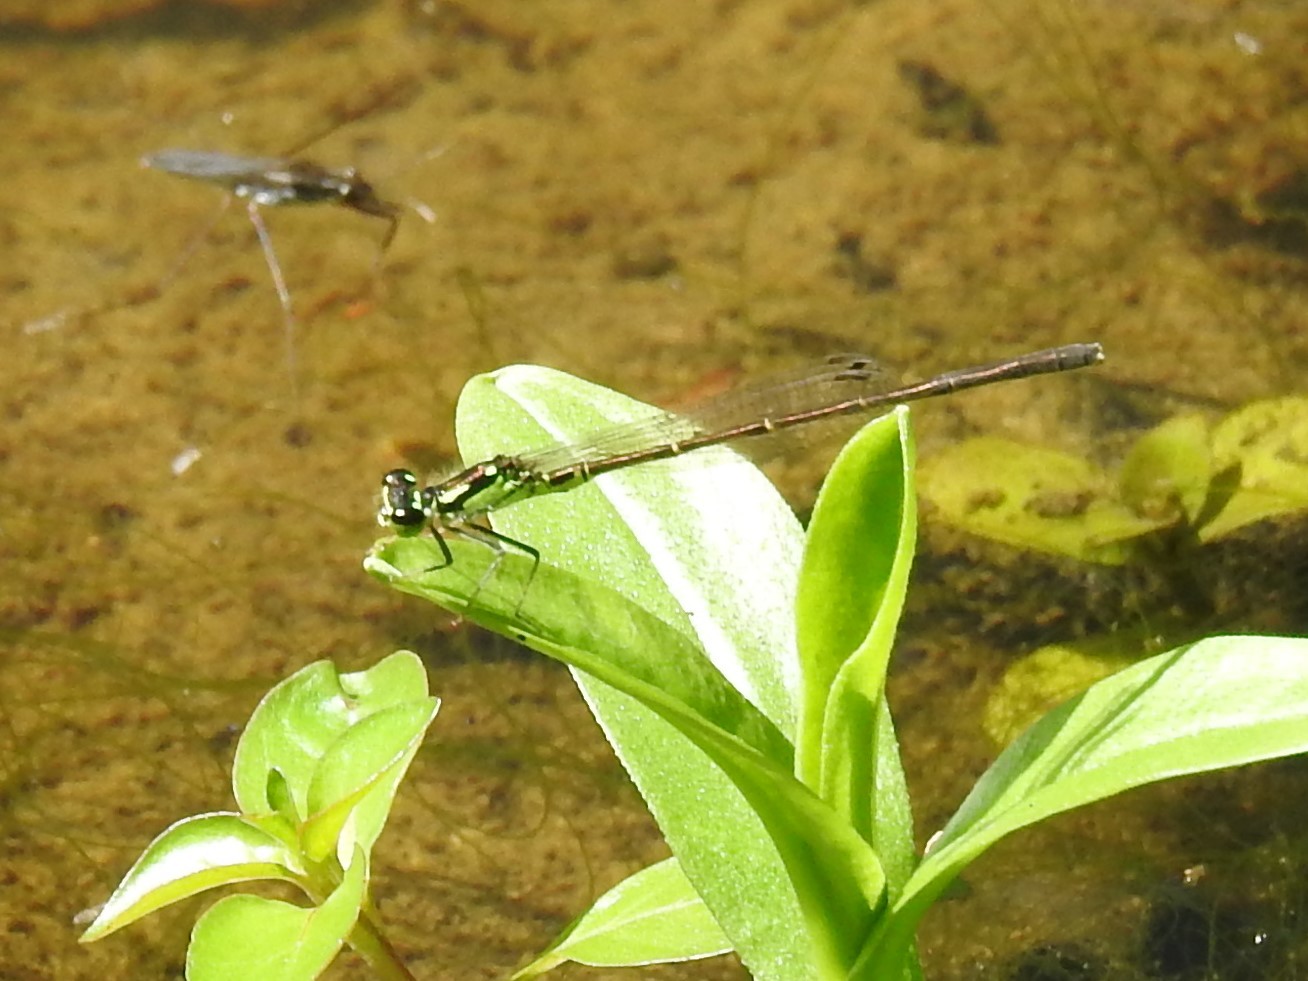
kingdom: Animalia
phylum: Arthropoda
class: Insecta
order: Odonata
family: Coenagrionidae
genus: Ischnura
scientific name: Ischnura posita
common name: Fragile forktail
